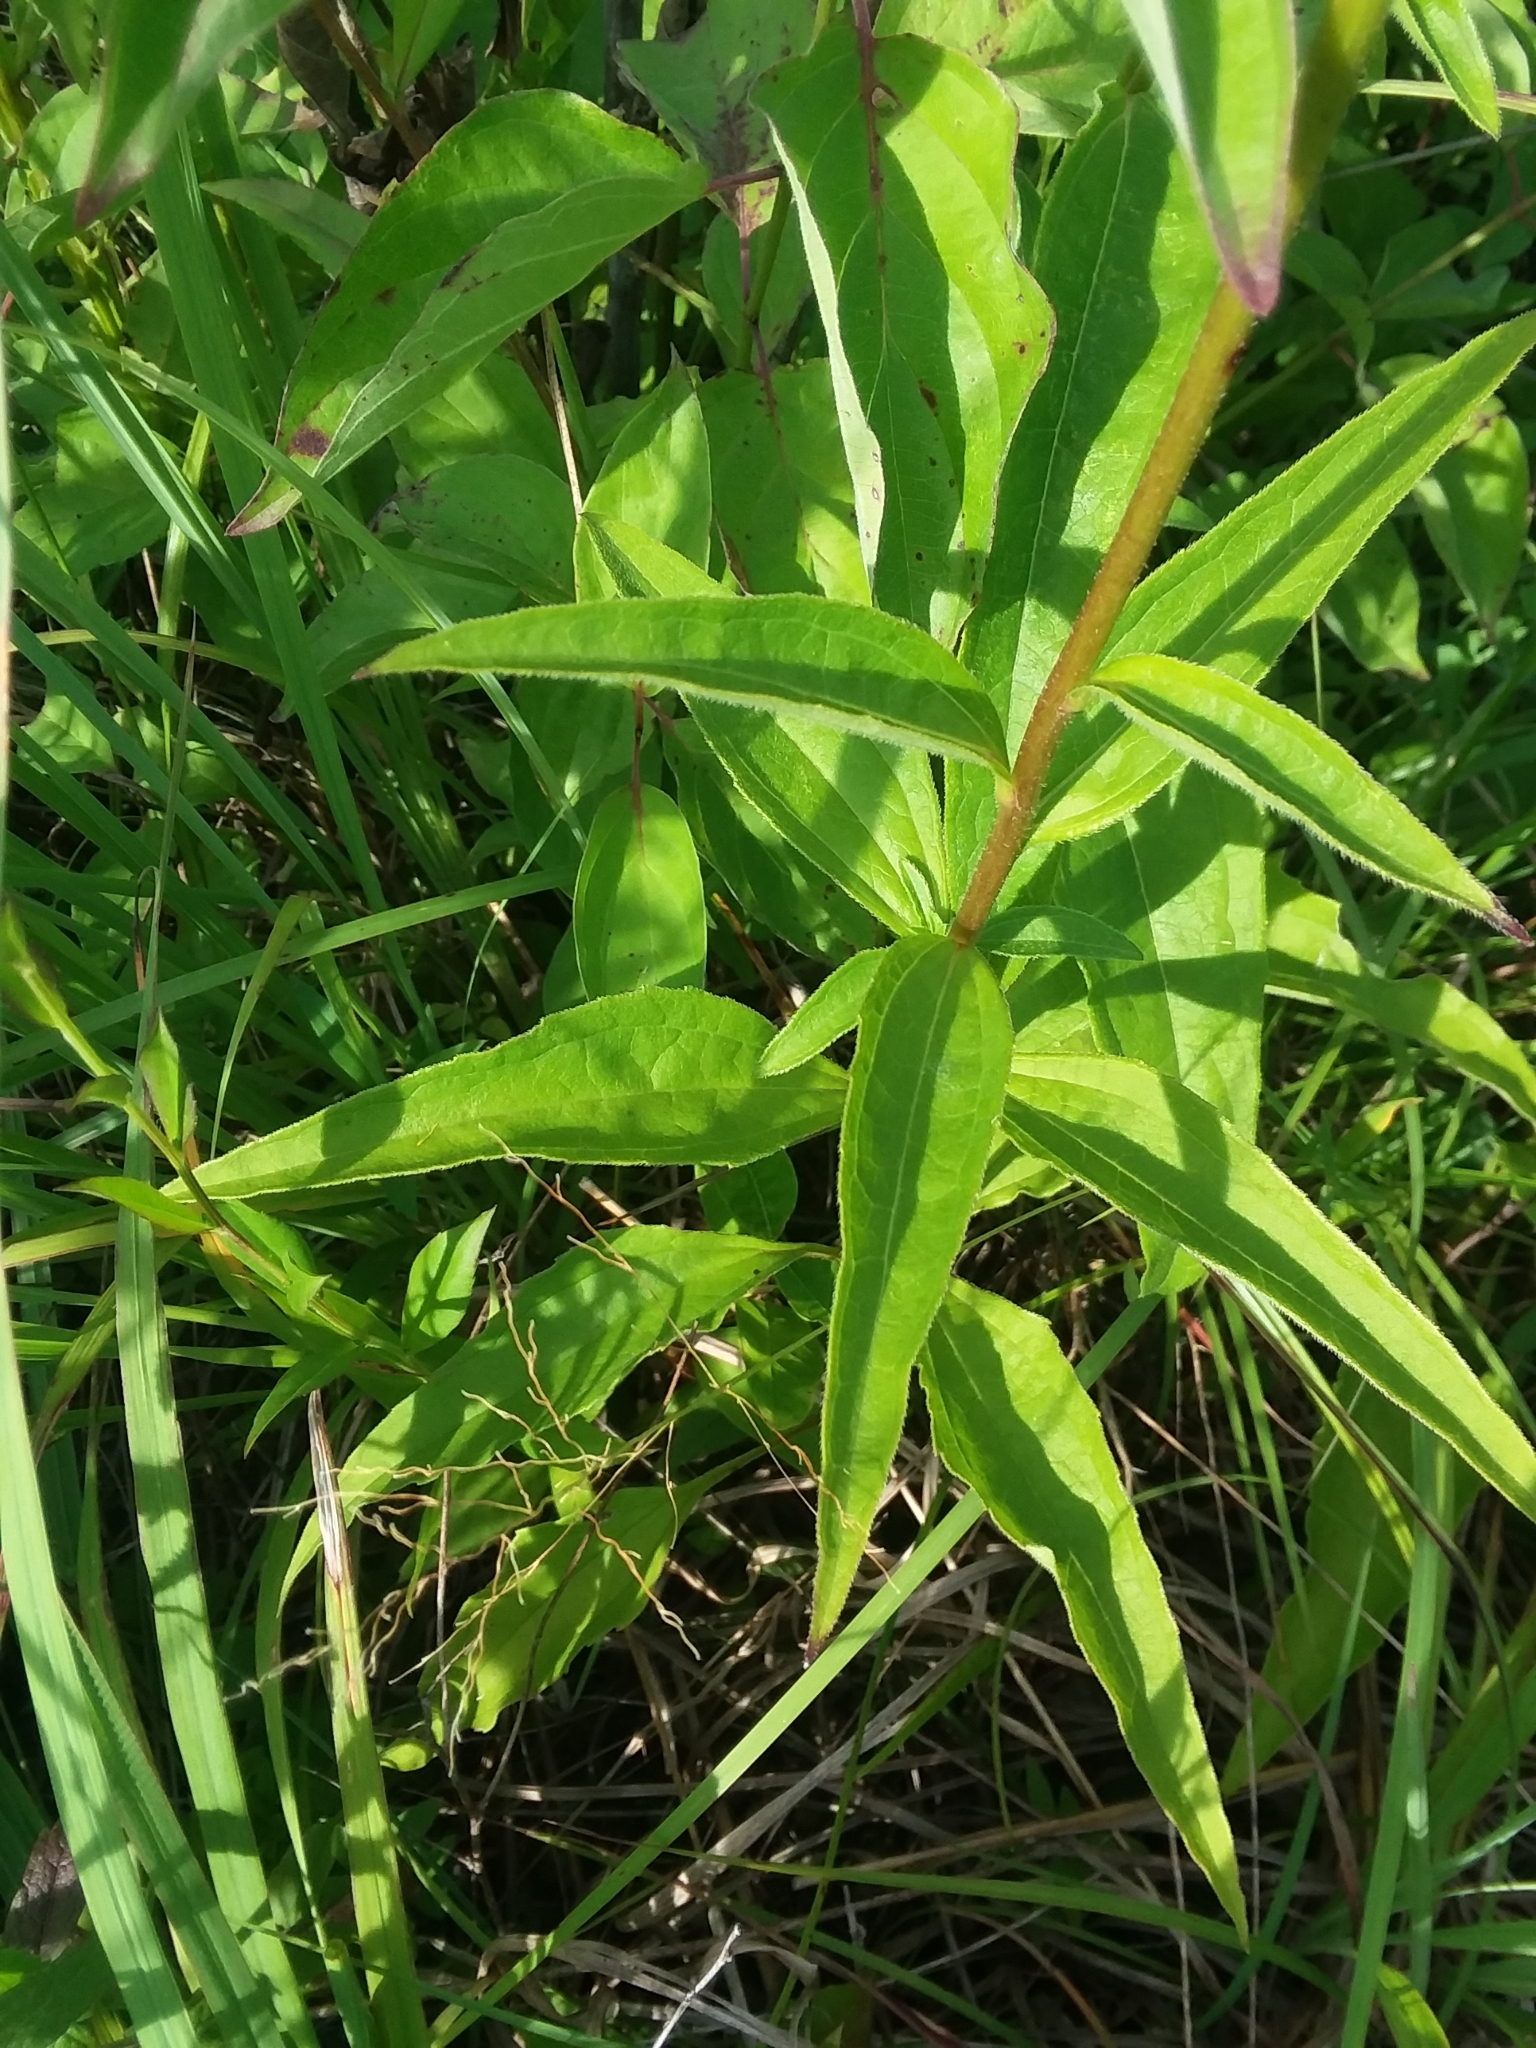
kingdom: Plantae
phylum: Tracheophyta
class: Magnoliopsida
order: Asterales
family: Asteraceae
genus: Echinacea
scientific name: Echinacea purpurea
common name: Broad-leaved purple coneflower
